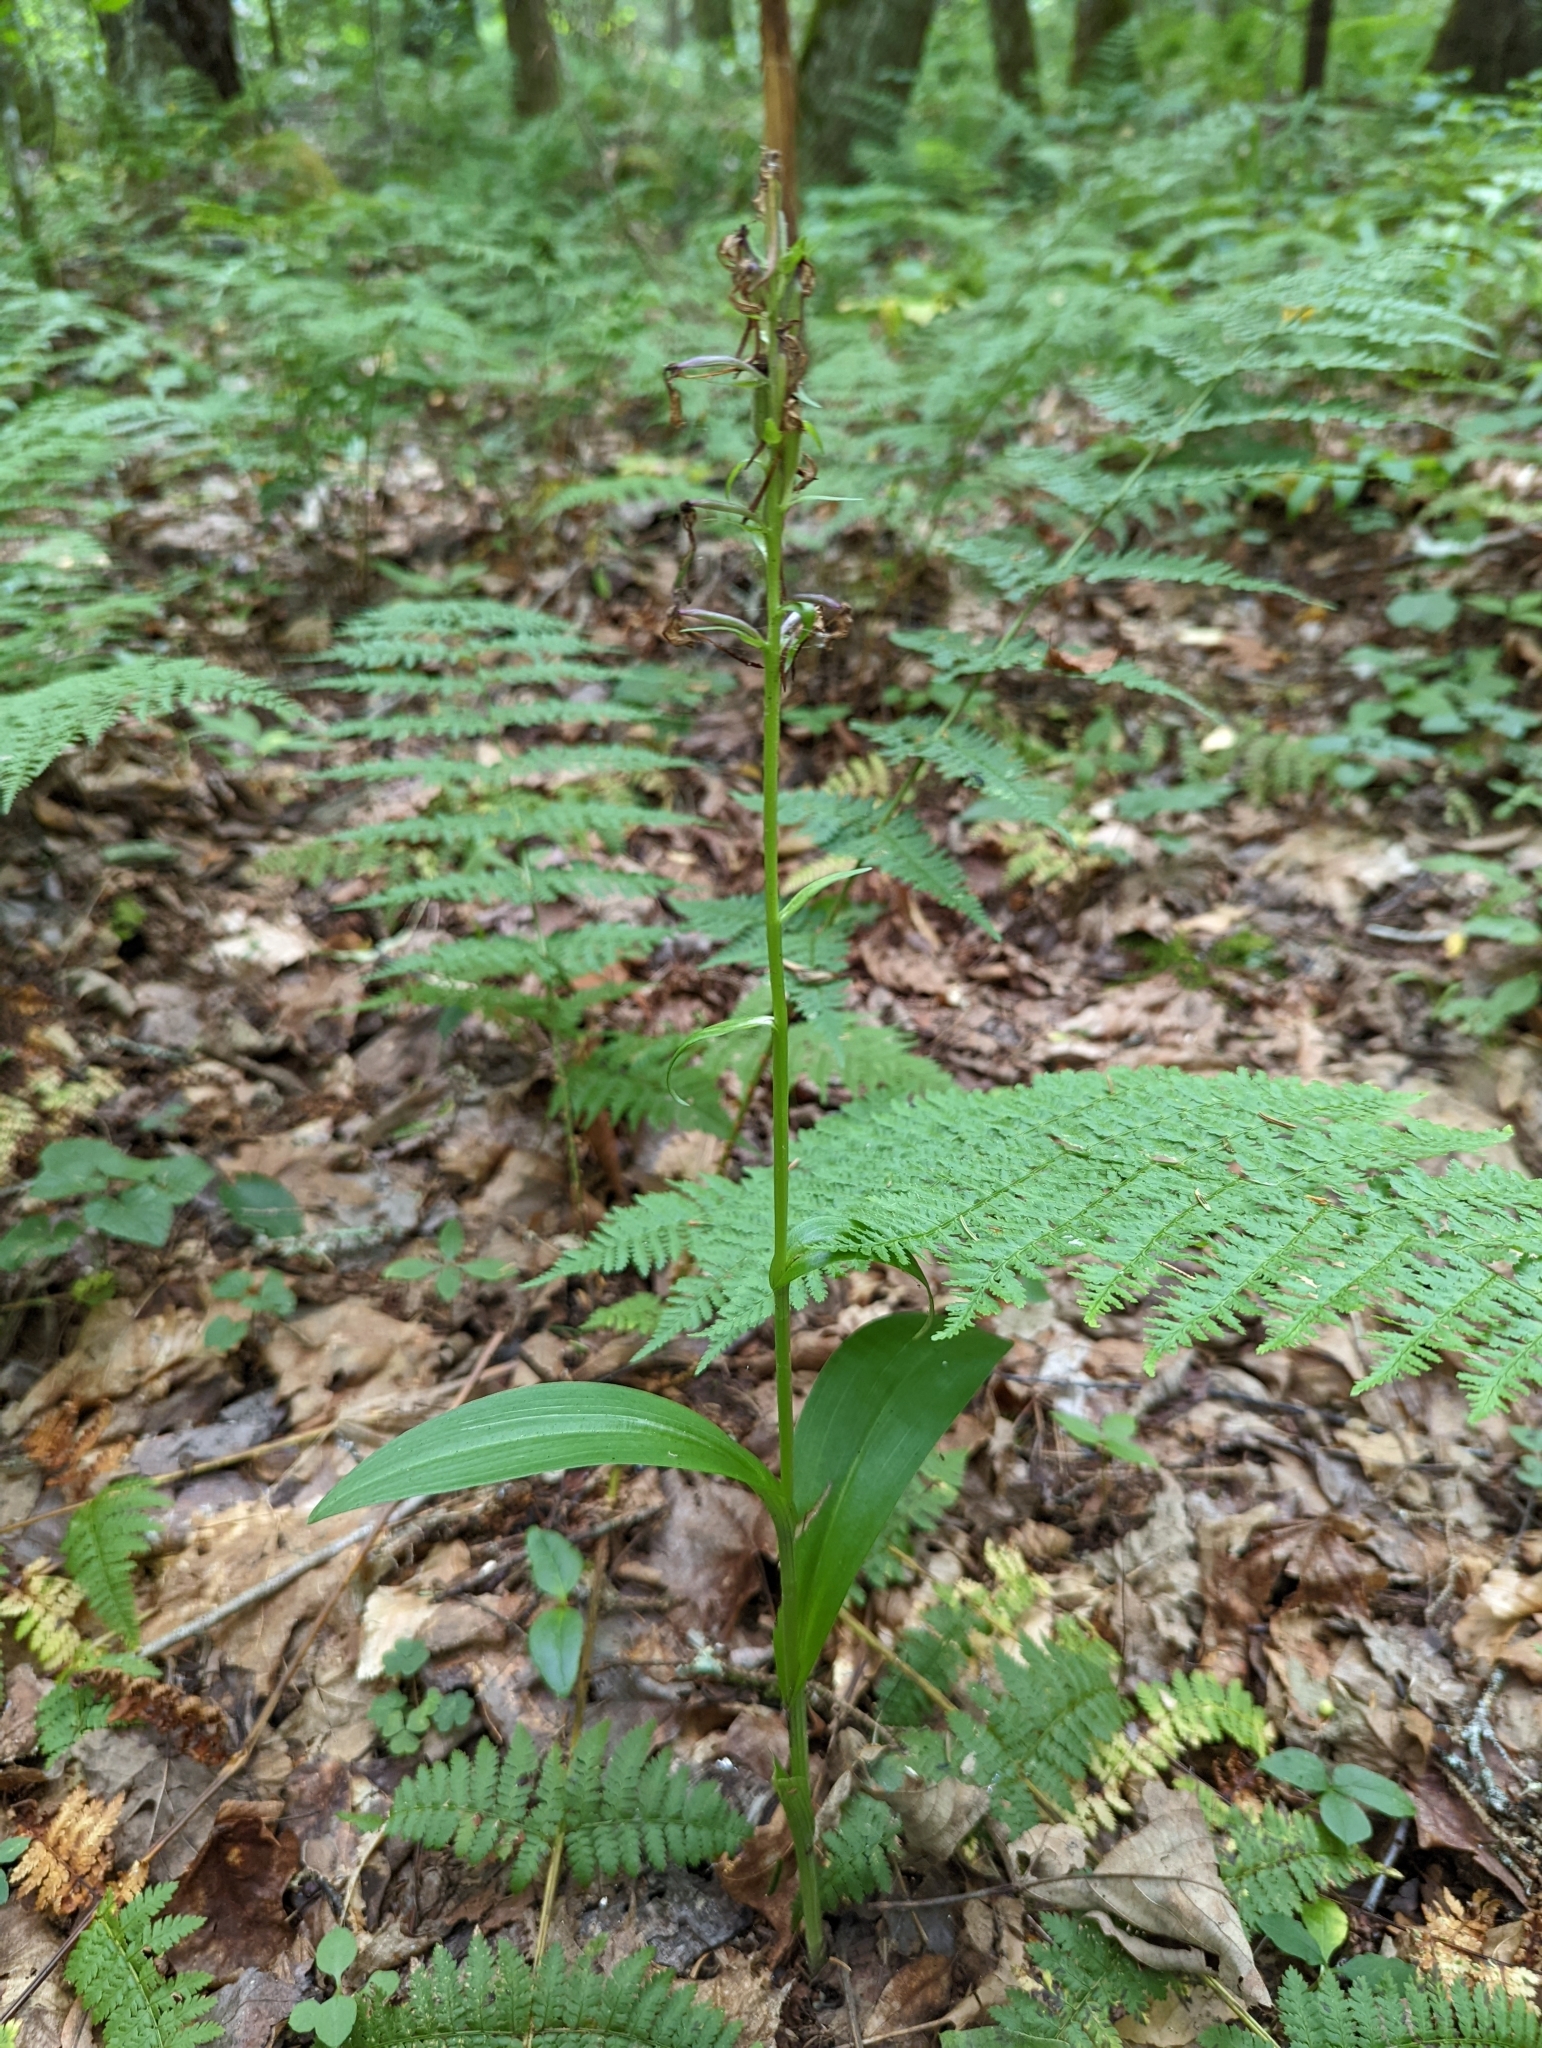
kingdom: Plantae
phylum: Tracheophyta
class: Liliopsida
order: Asparagales
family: Orchidaceae
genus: Platanthera
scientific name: Platanthera grandiflora
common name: Greater purple fringed orchid
